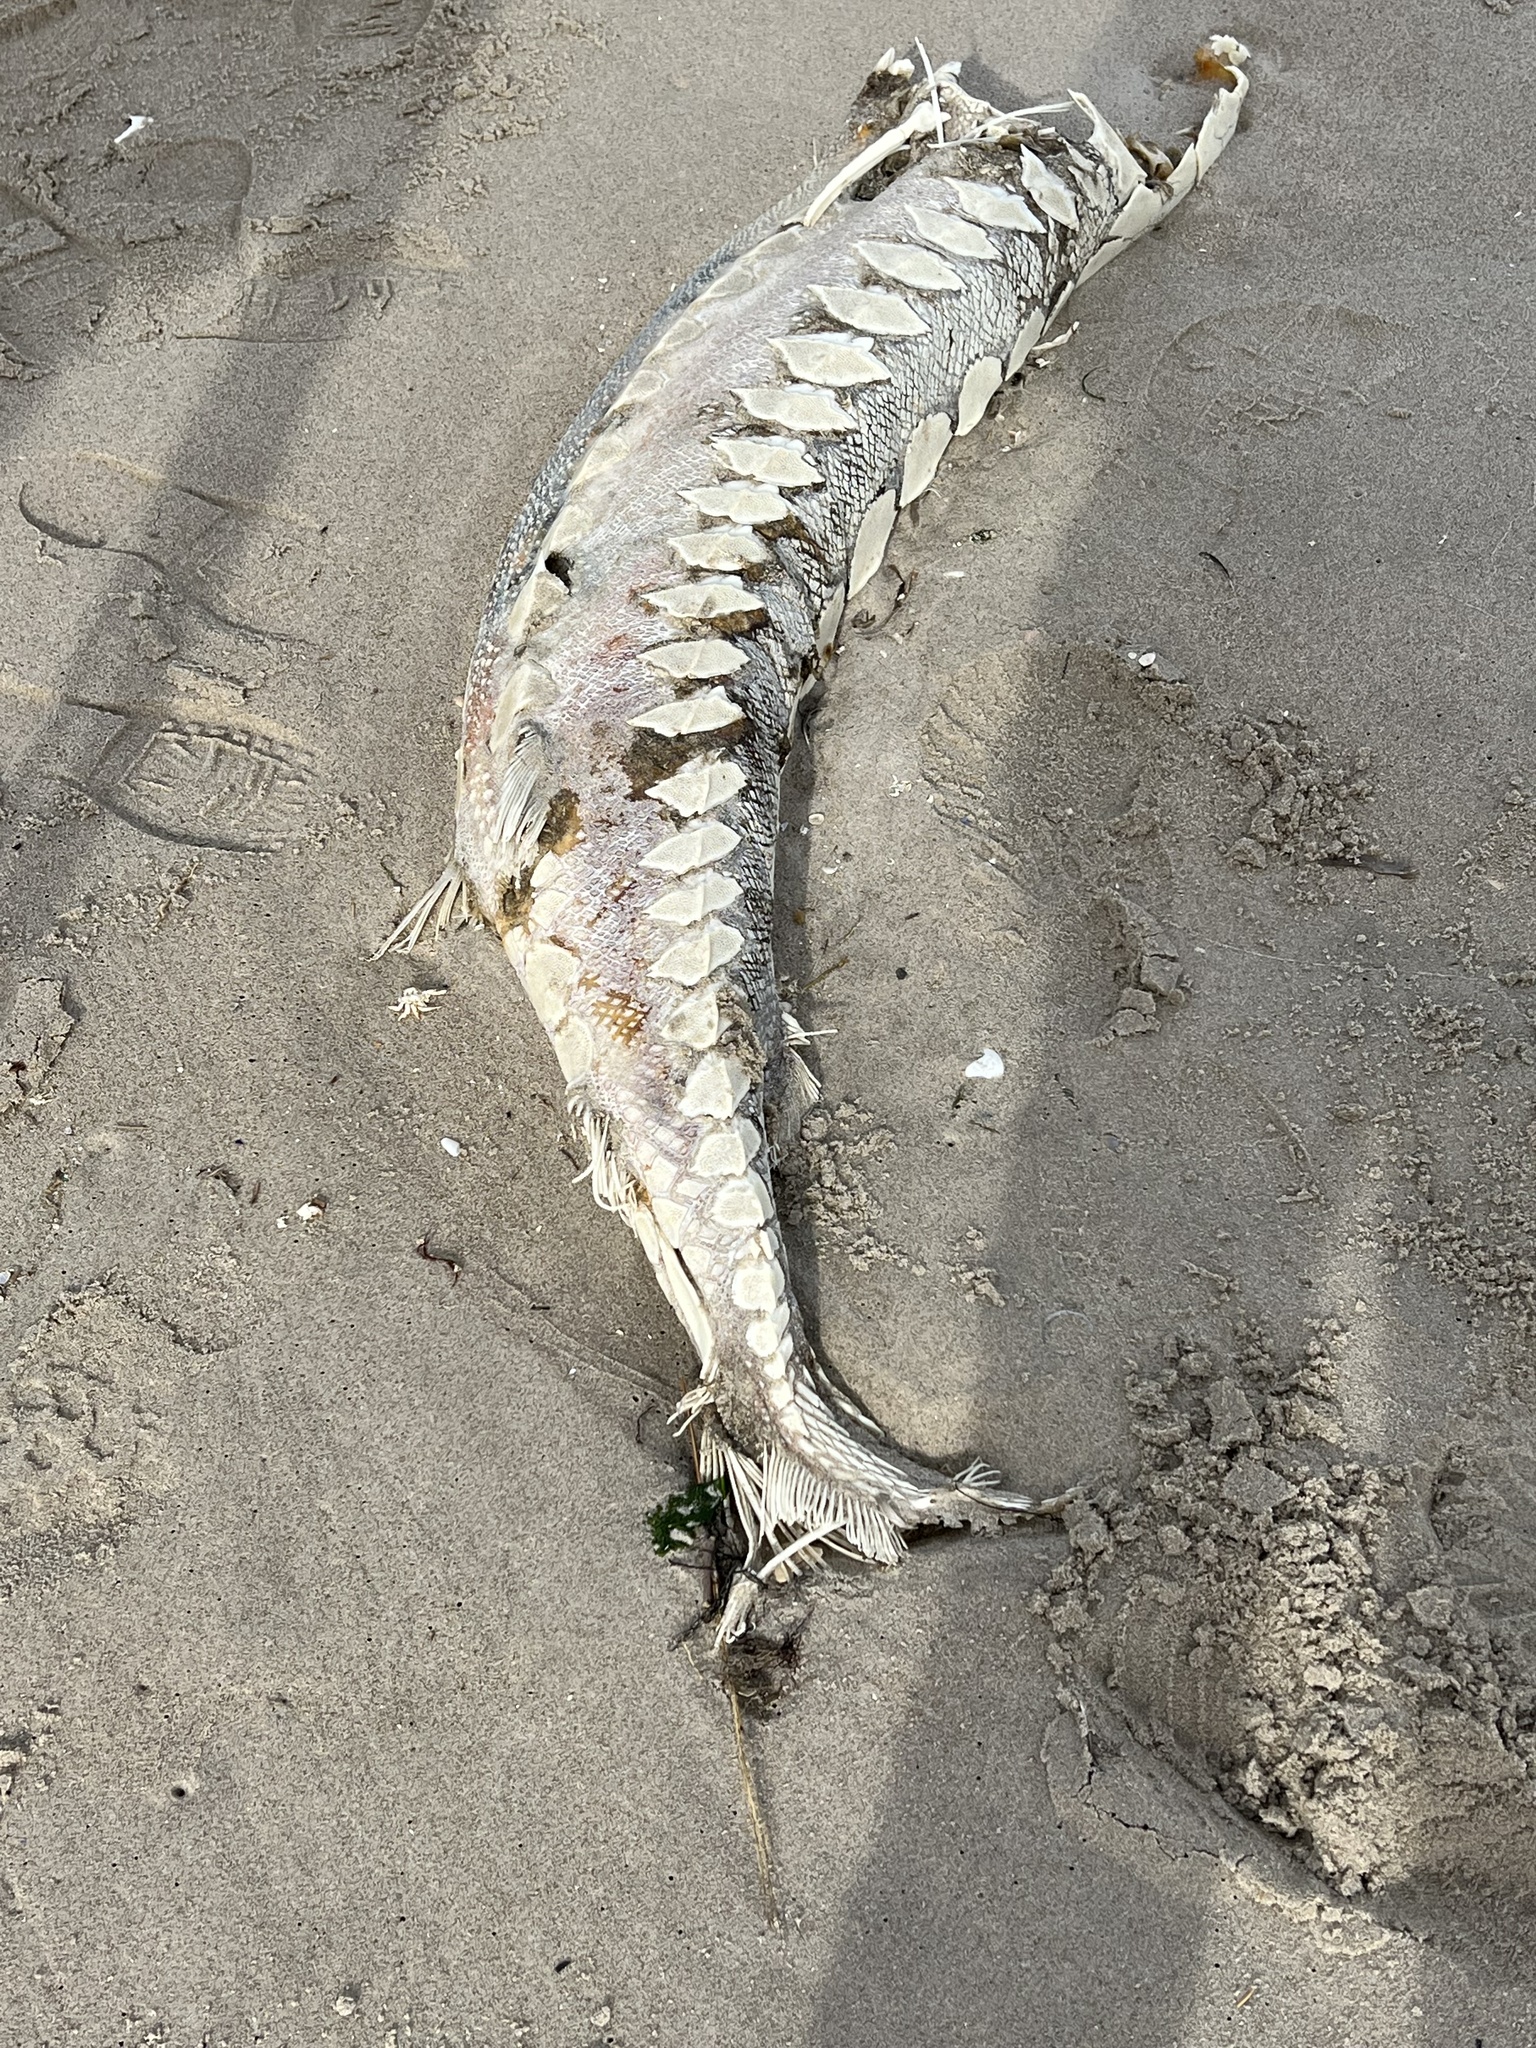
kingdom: Animalia
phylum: Chordata
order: Acipenseriformes
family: Acipenseridae
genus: Acipenser
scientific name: Acipenser oxyrinchus
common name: Atlantic sturgeon
